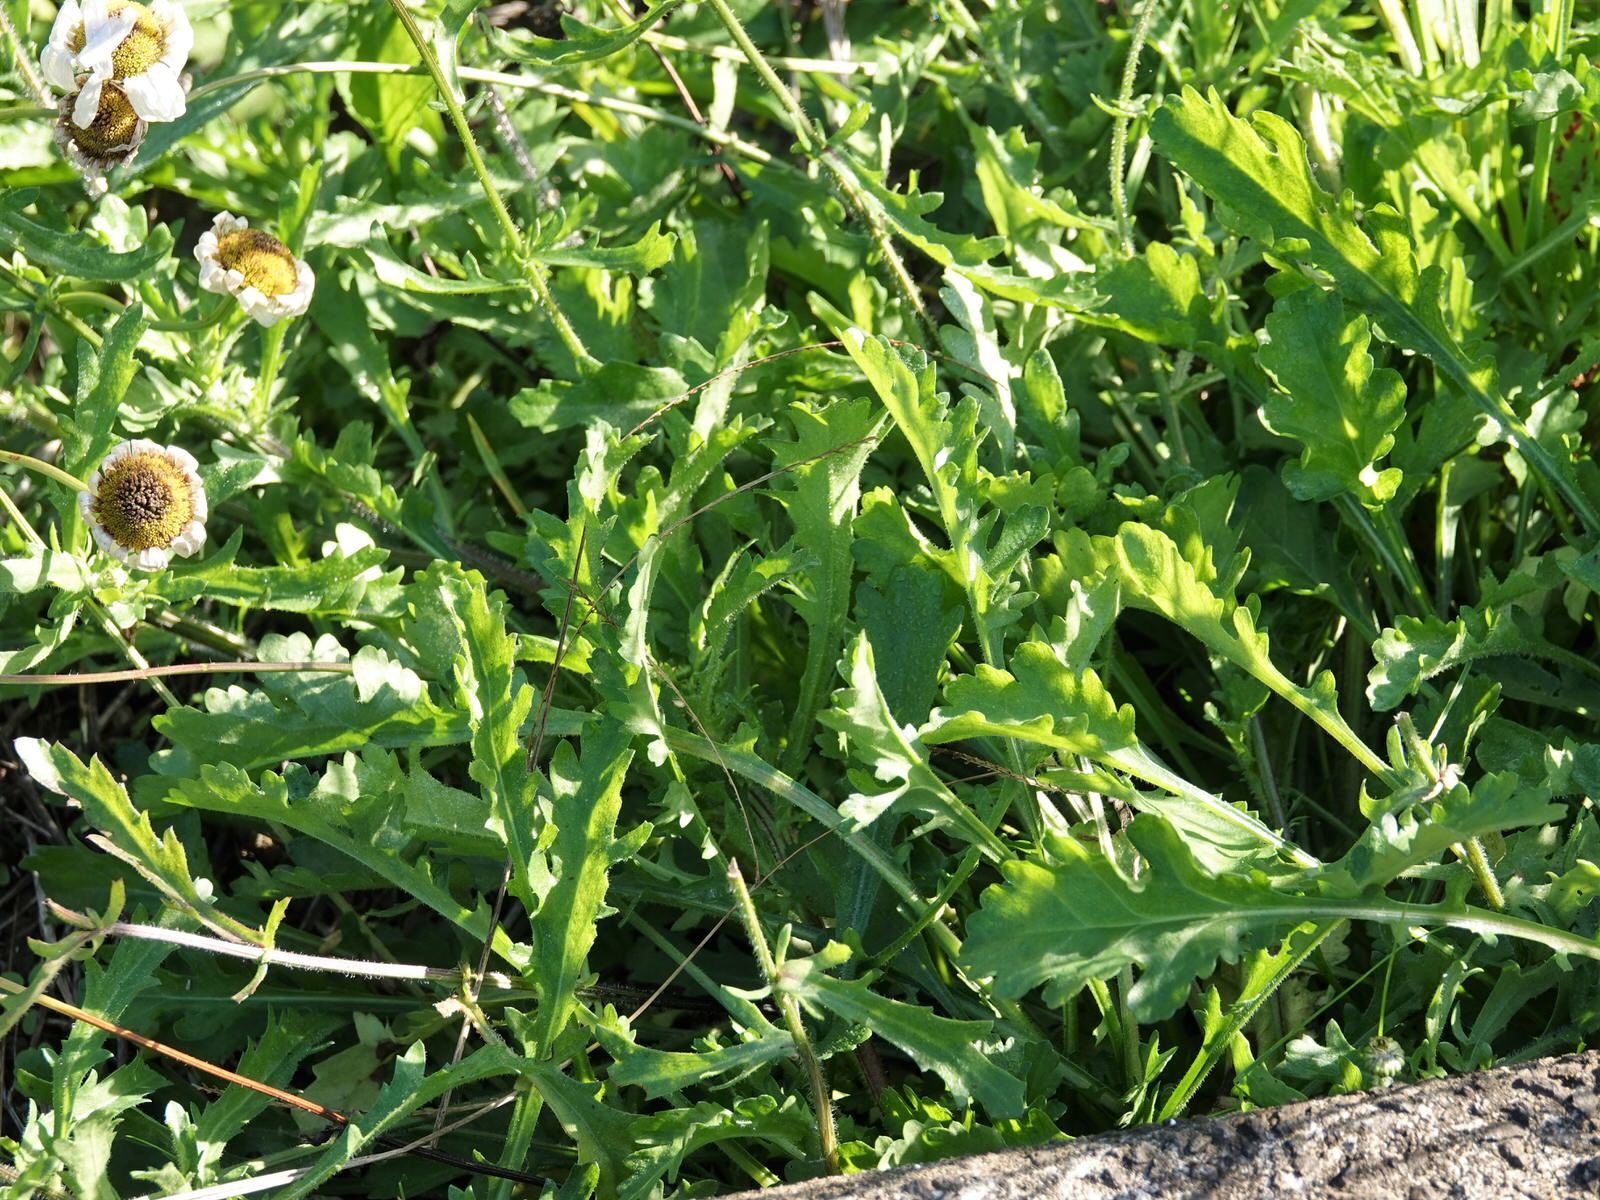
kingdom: Plantae
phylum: Tracheophyta
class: Magnoliopsida
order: Asterales
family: Asteraceae
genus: Leucanthemum
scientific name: Leucanthemum vulgare
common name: Oxeye daisy
